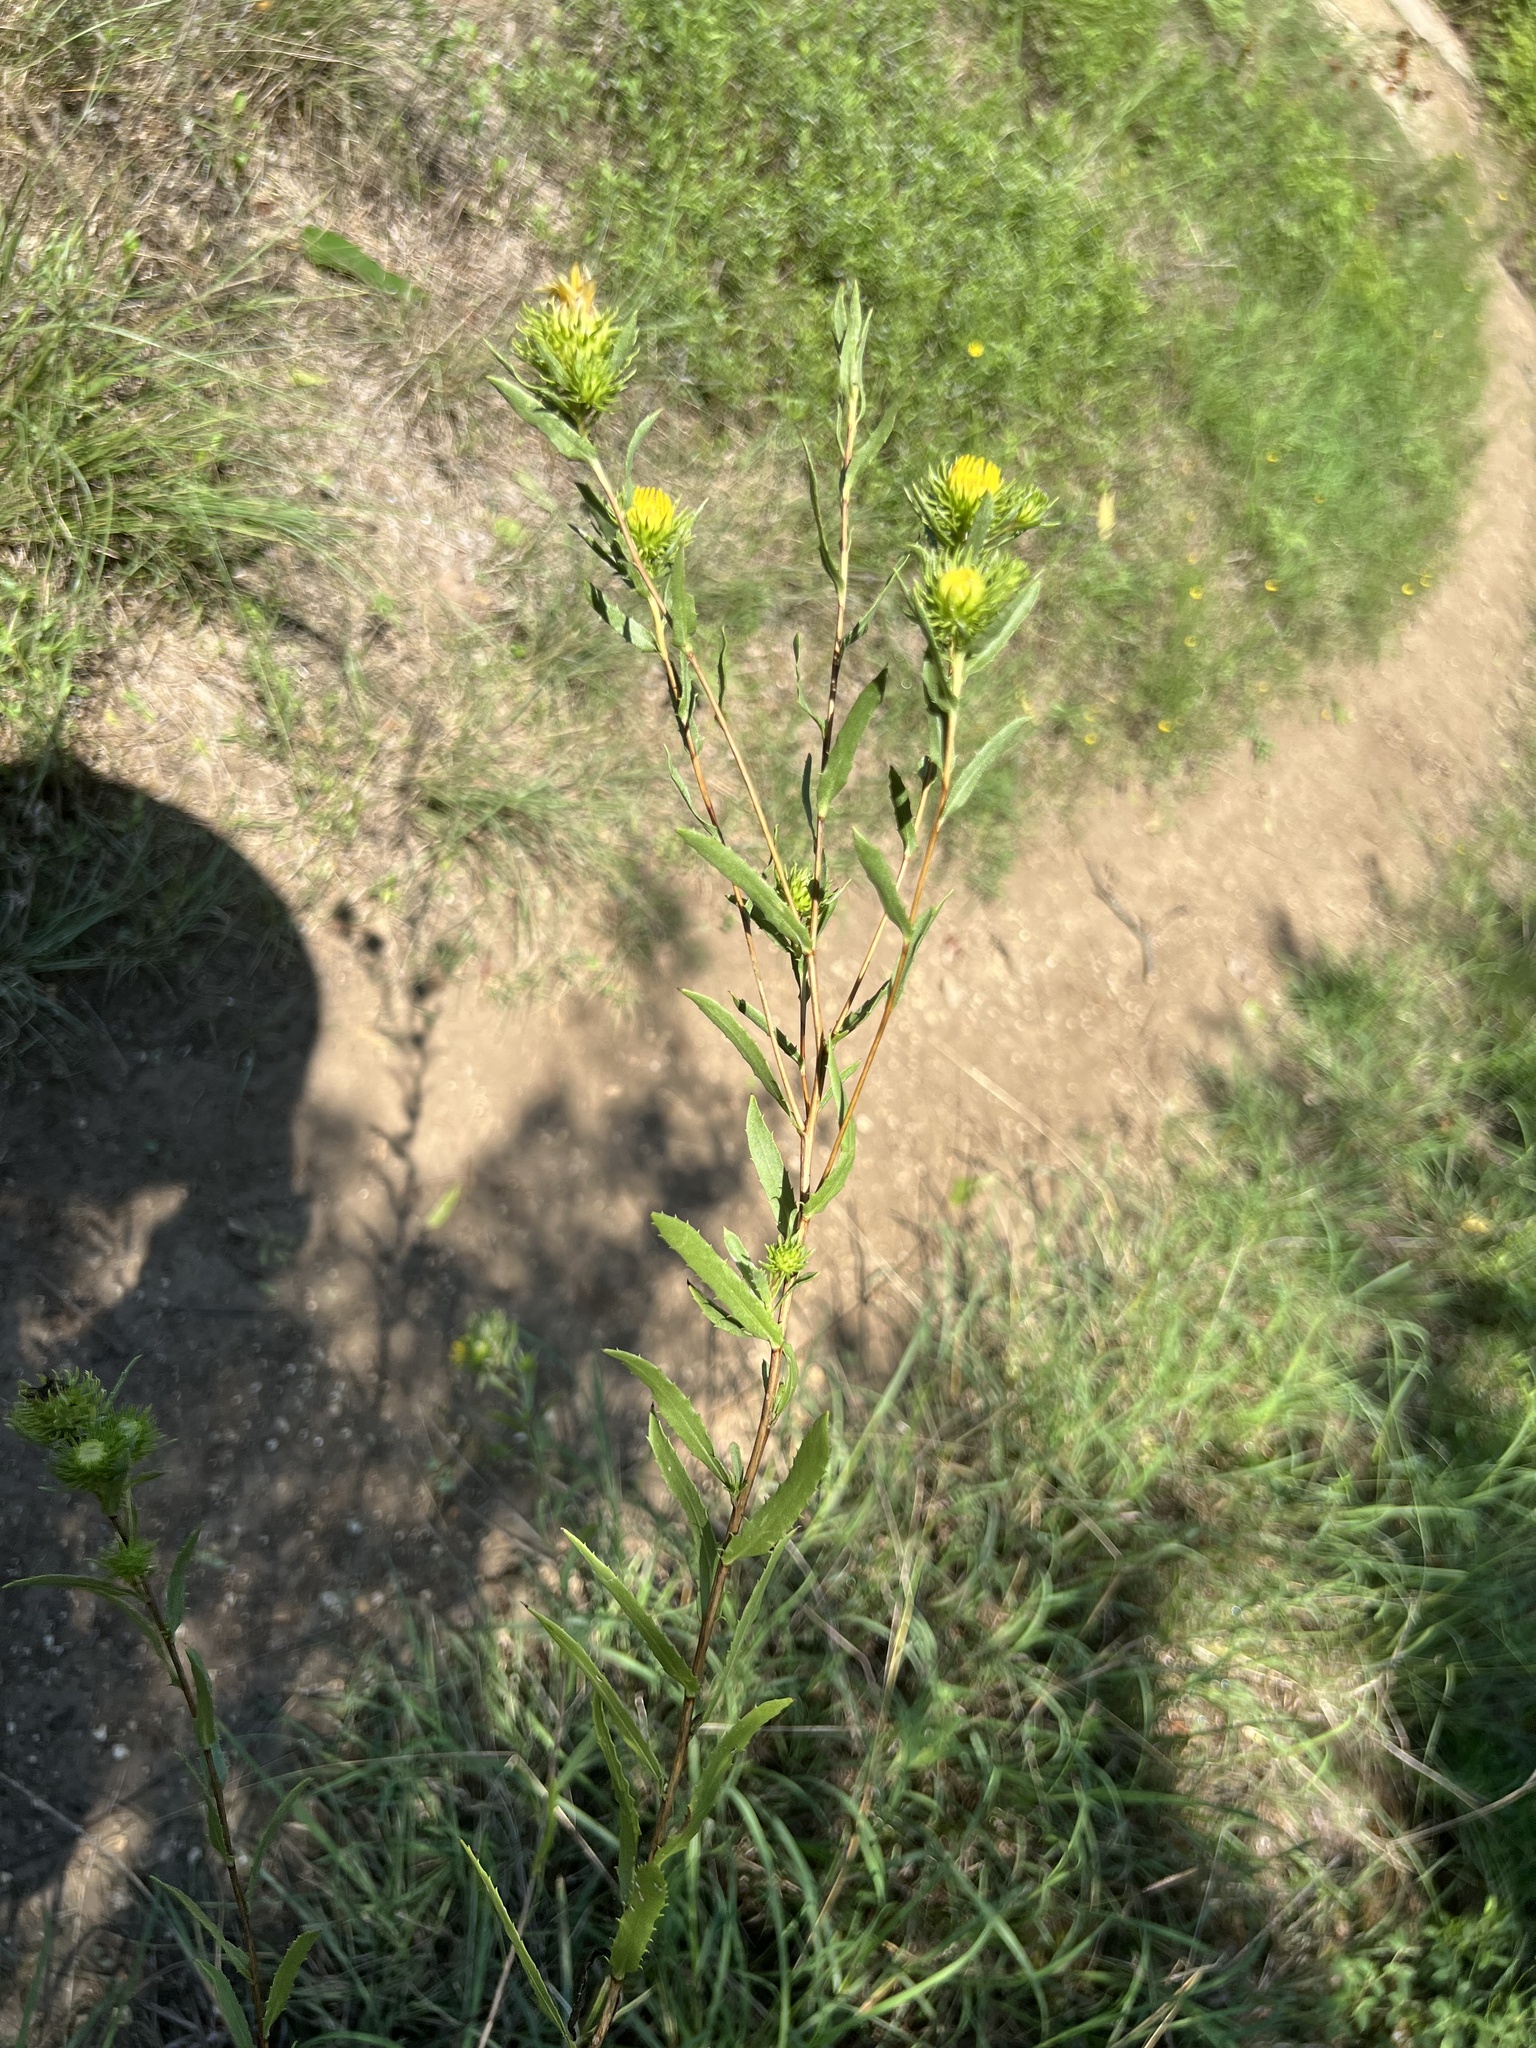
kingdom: Plantae
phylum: Tracheophyta
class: Magnoliopsida
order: Asterales
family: Asteraceae
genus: Grindelia
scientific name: Grindelia lanceolata
